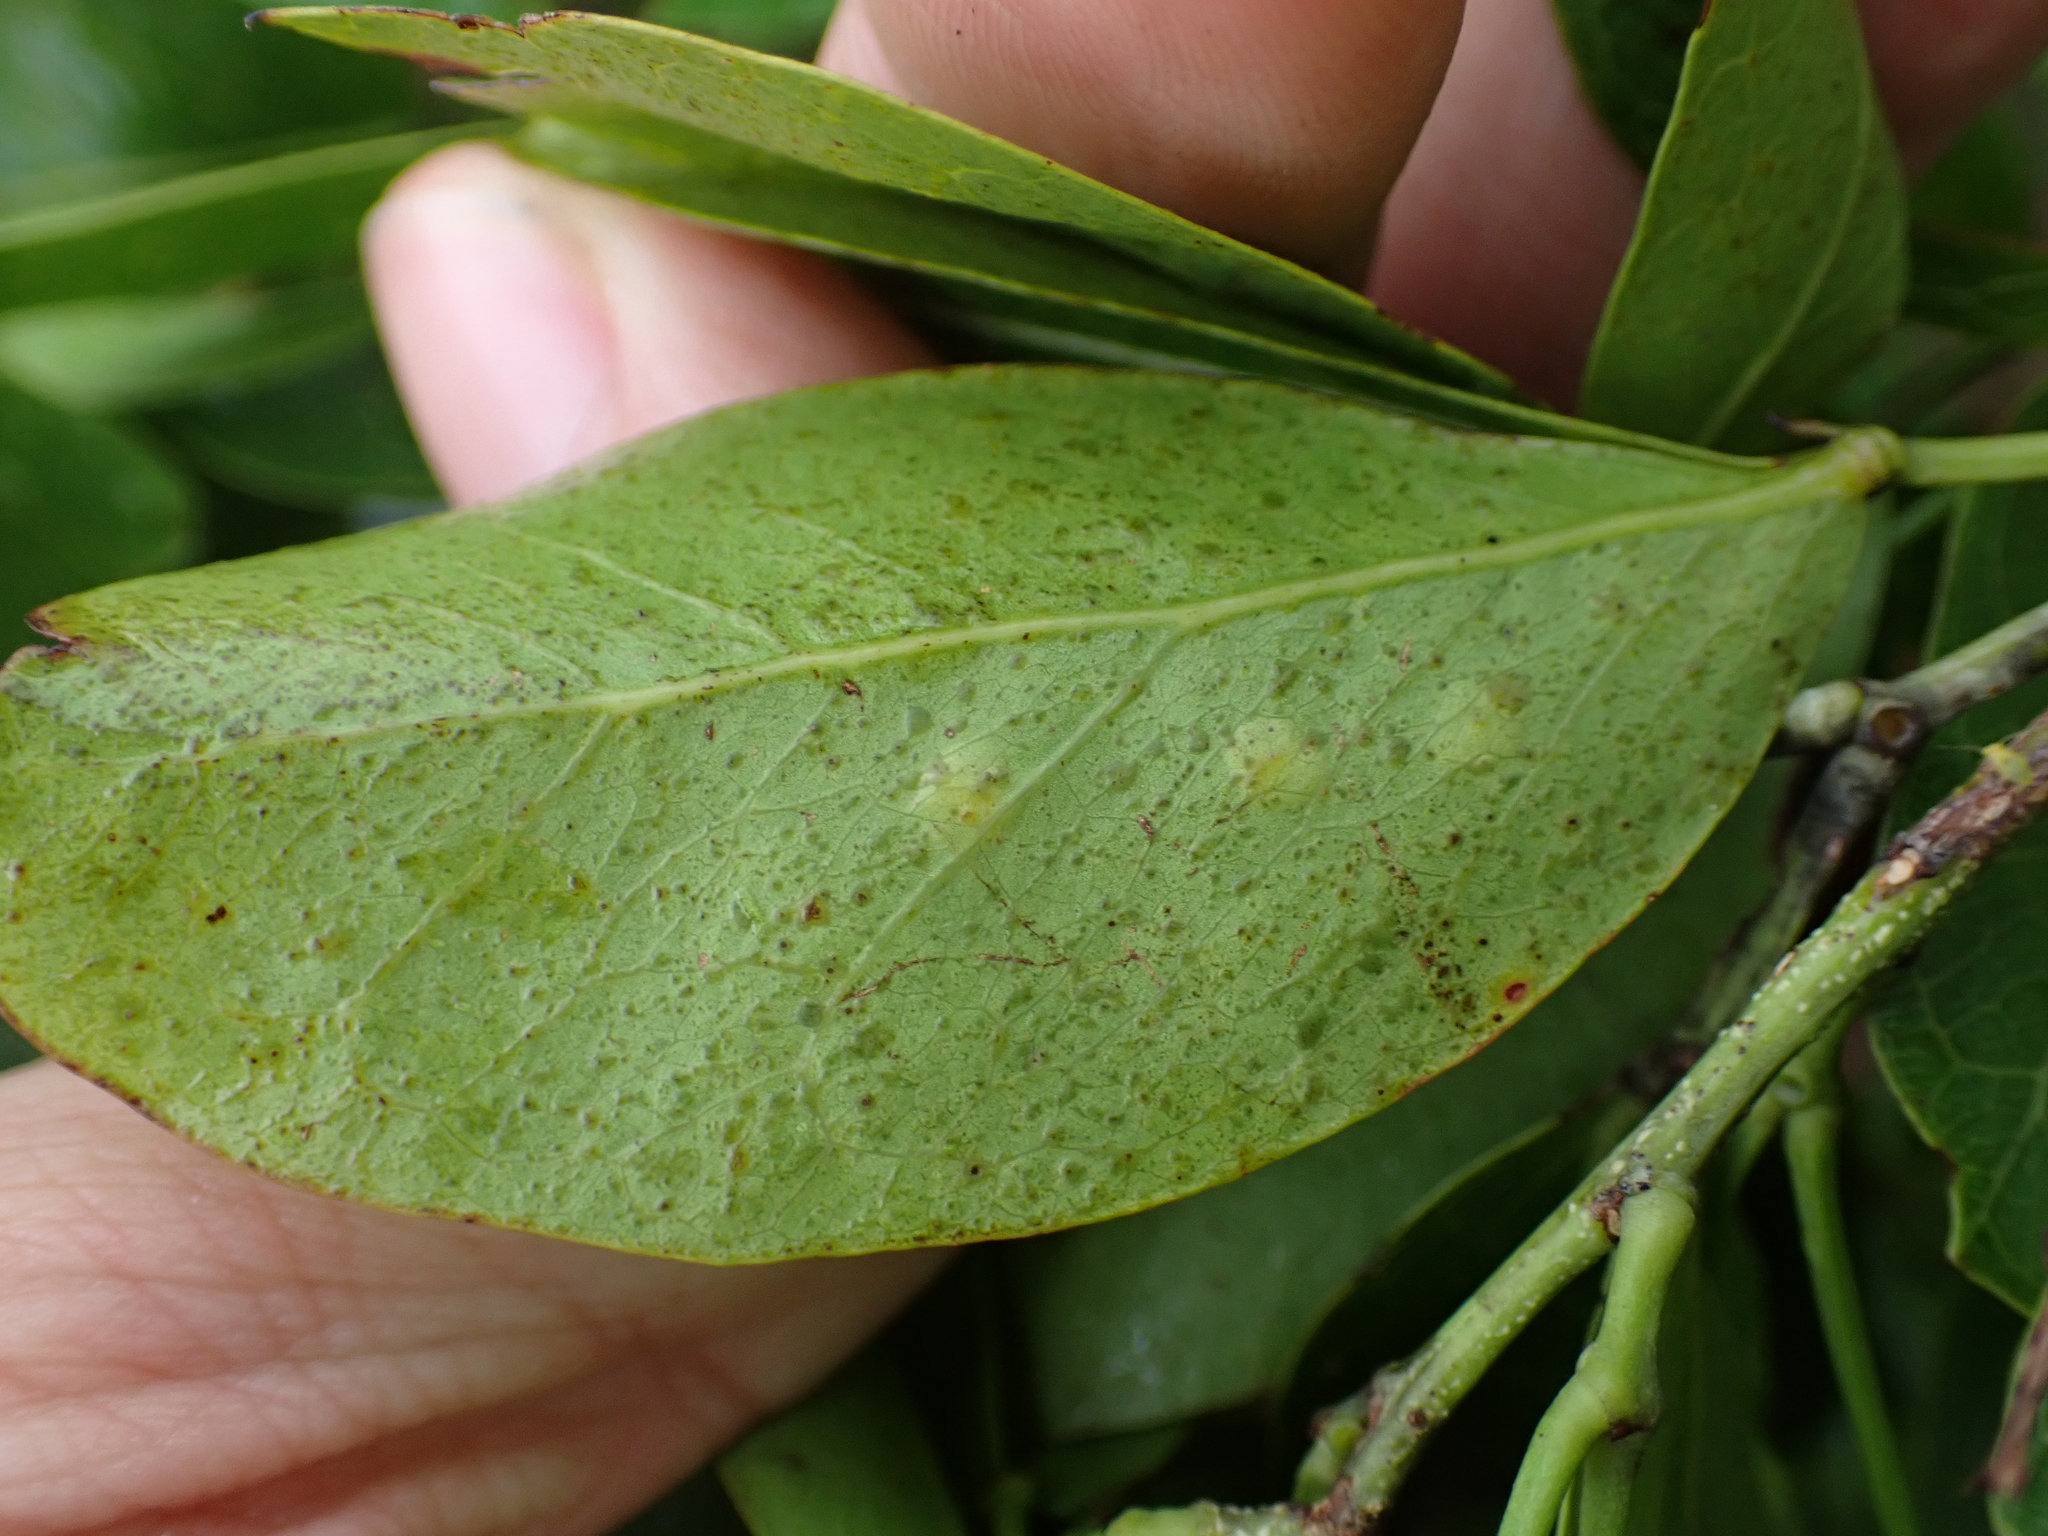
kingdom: Animalia
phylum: Arthropoda
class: Insecta
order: Hymenoptera
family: Tanaostigmatidae
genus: Tanaostigmodes
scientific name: Tanaostigmodes pithecellobiae
